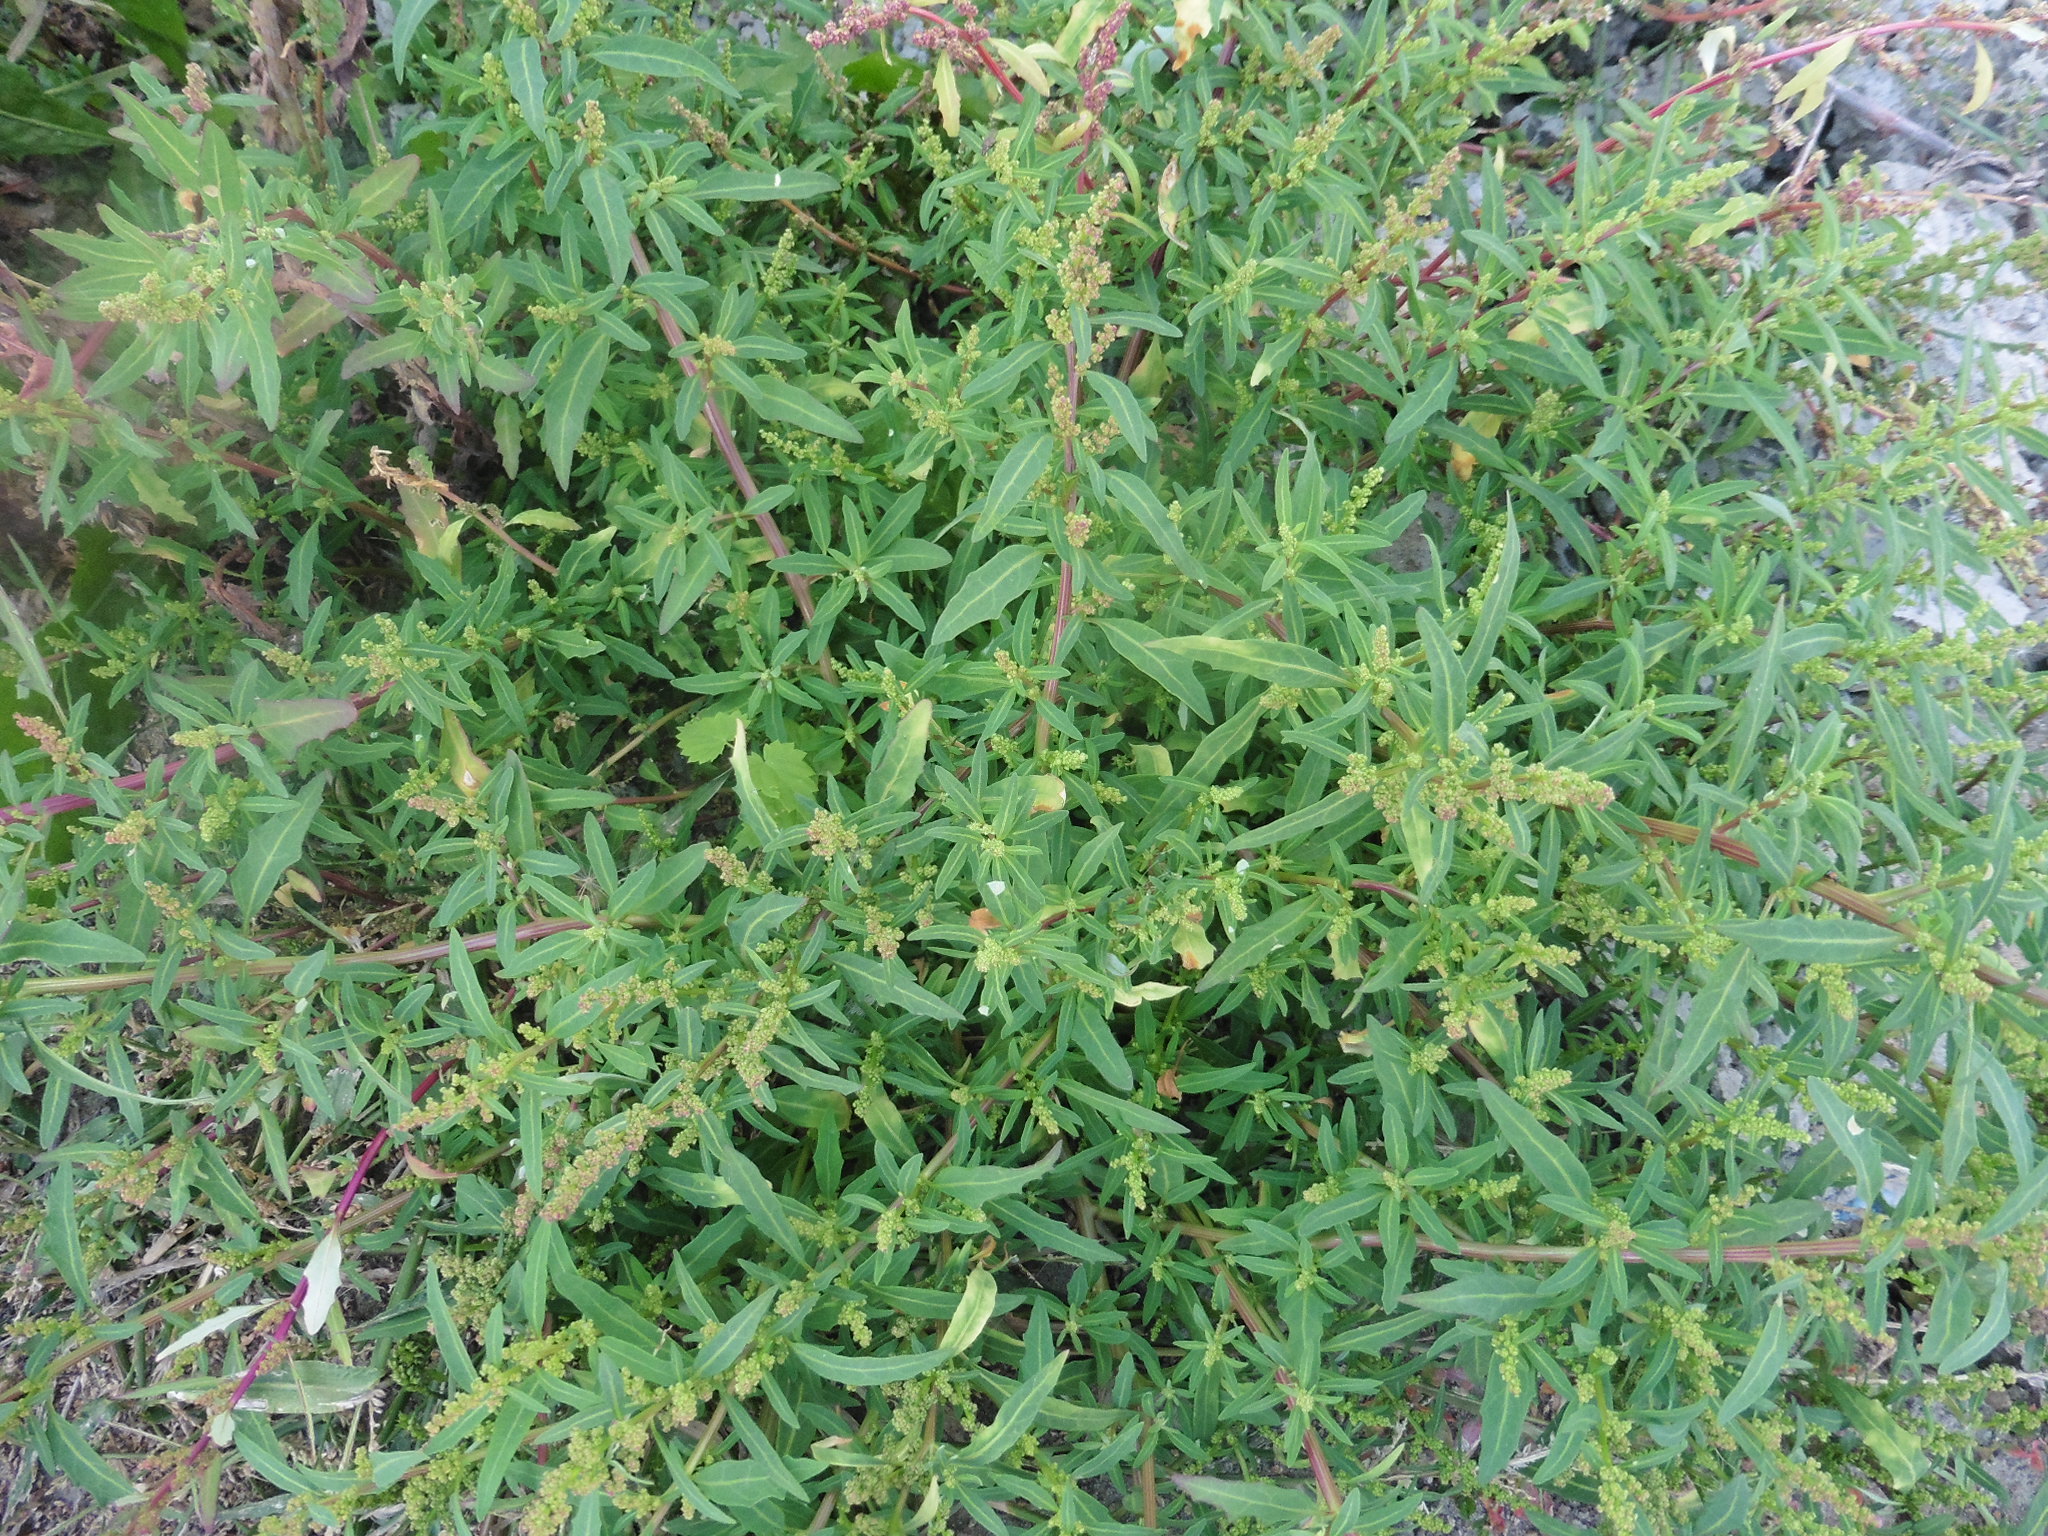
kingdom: Plantae
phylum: Tracheophyta
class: Magnoliopsida
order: Caryophyllales
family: Amaranthaceae
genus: Oxybasis
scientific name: Oxybasis glauca
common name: Glaucous goosefoot
